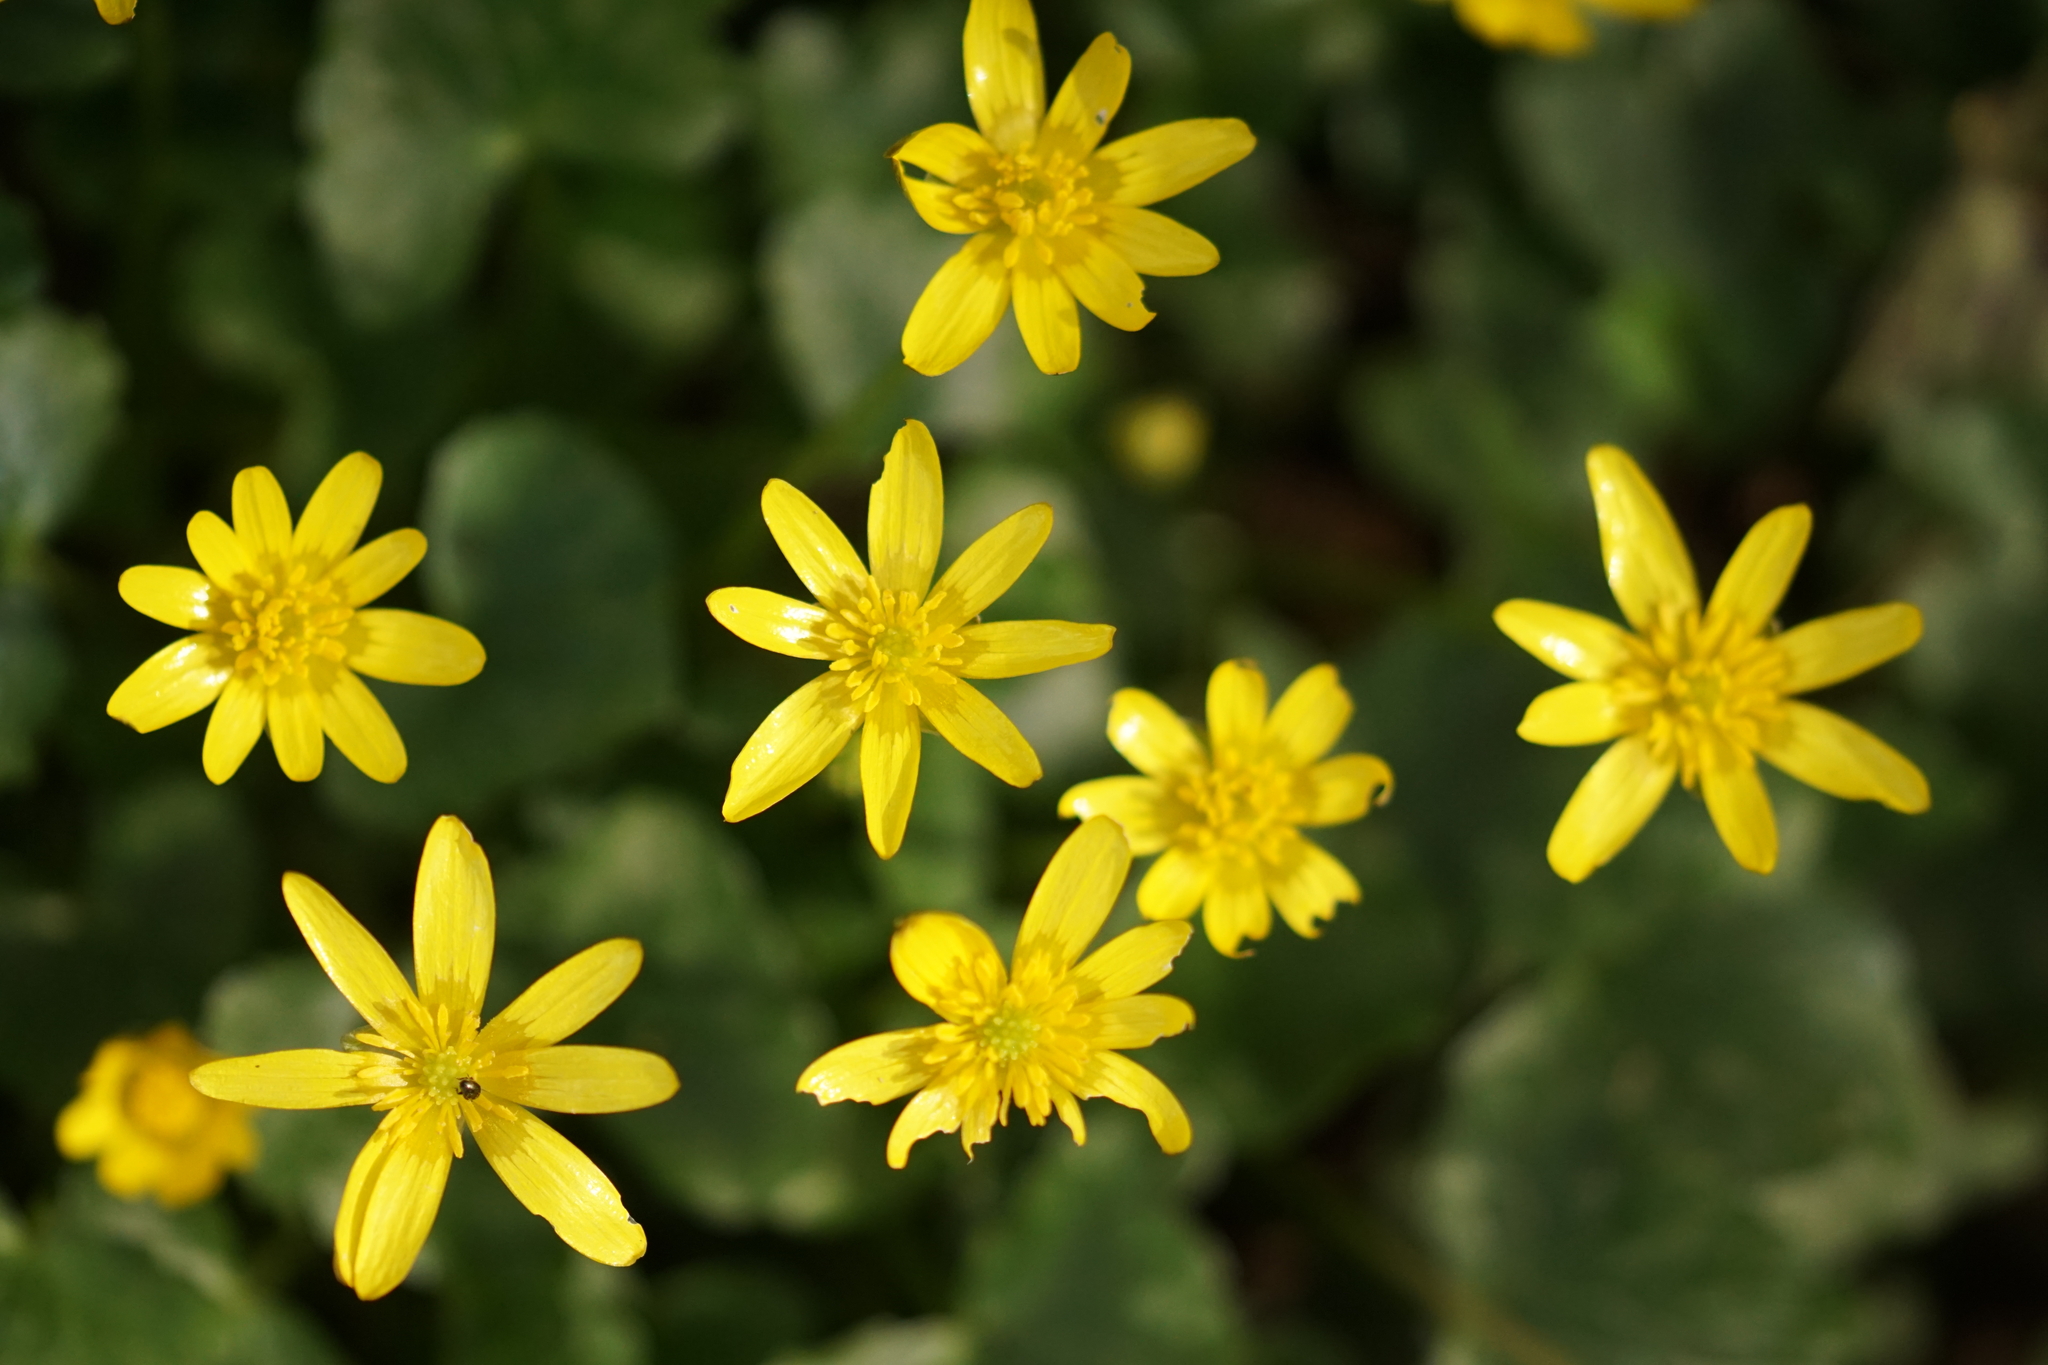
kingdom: Plantae
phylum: Tracheophyta
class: Magnoliopsida
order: Ranunculales
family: Ranunculaceae
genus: Ficaria
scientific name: Ficaria verna
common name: Lesser celandine
